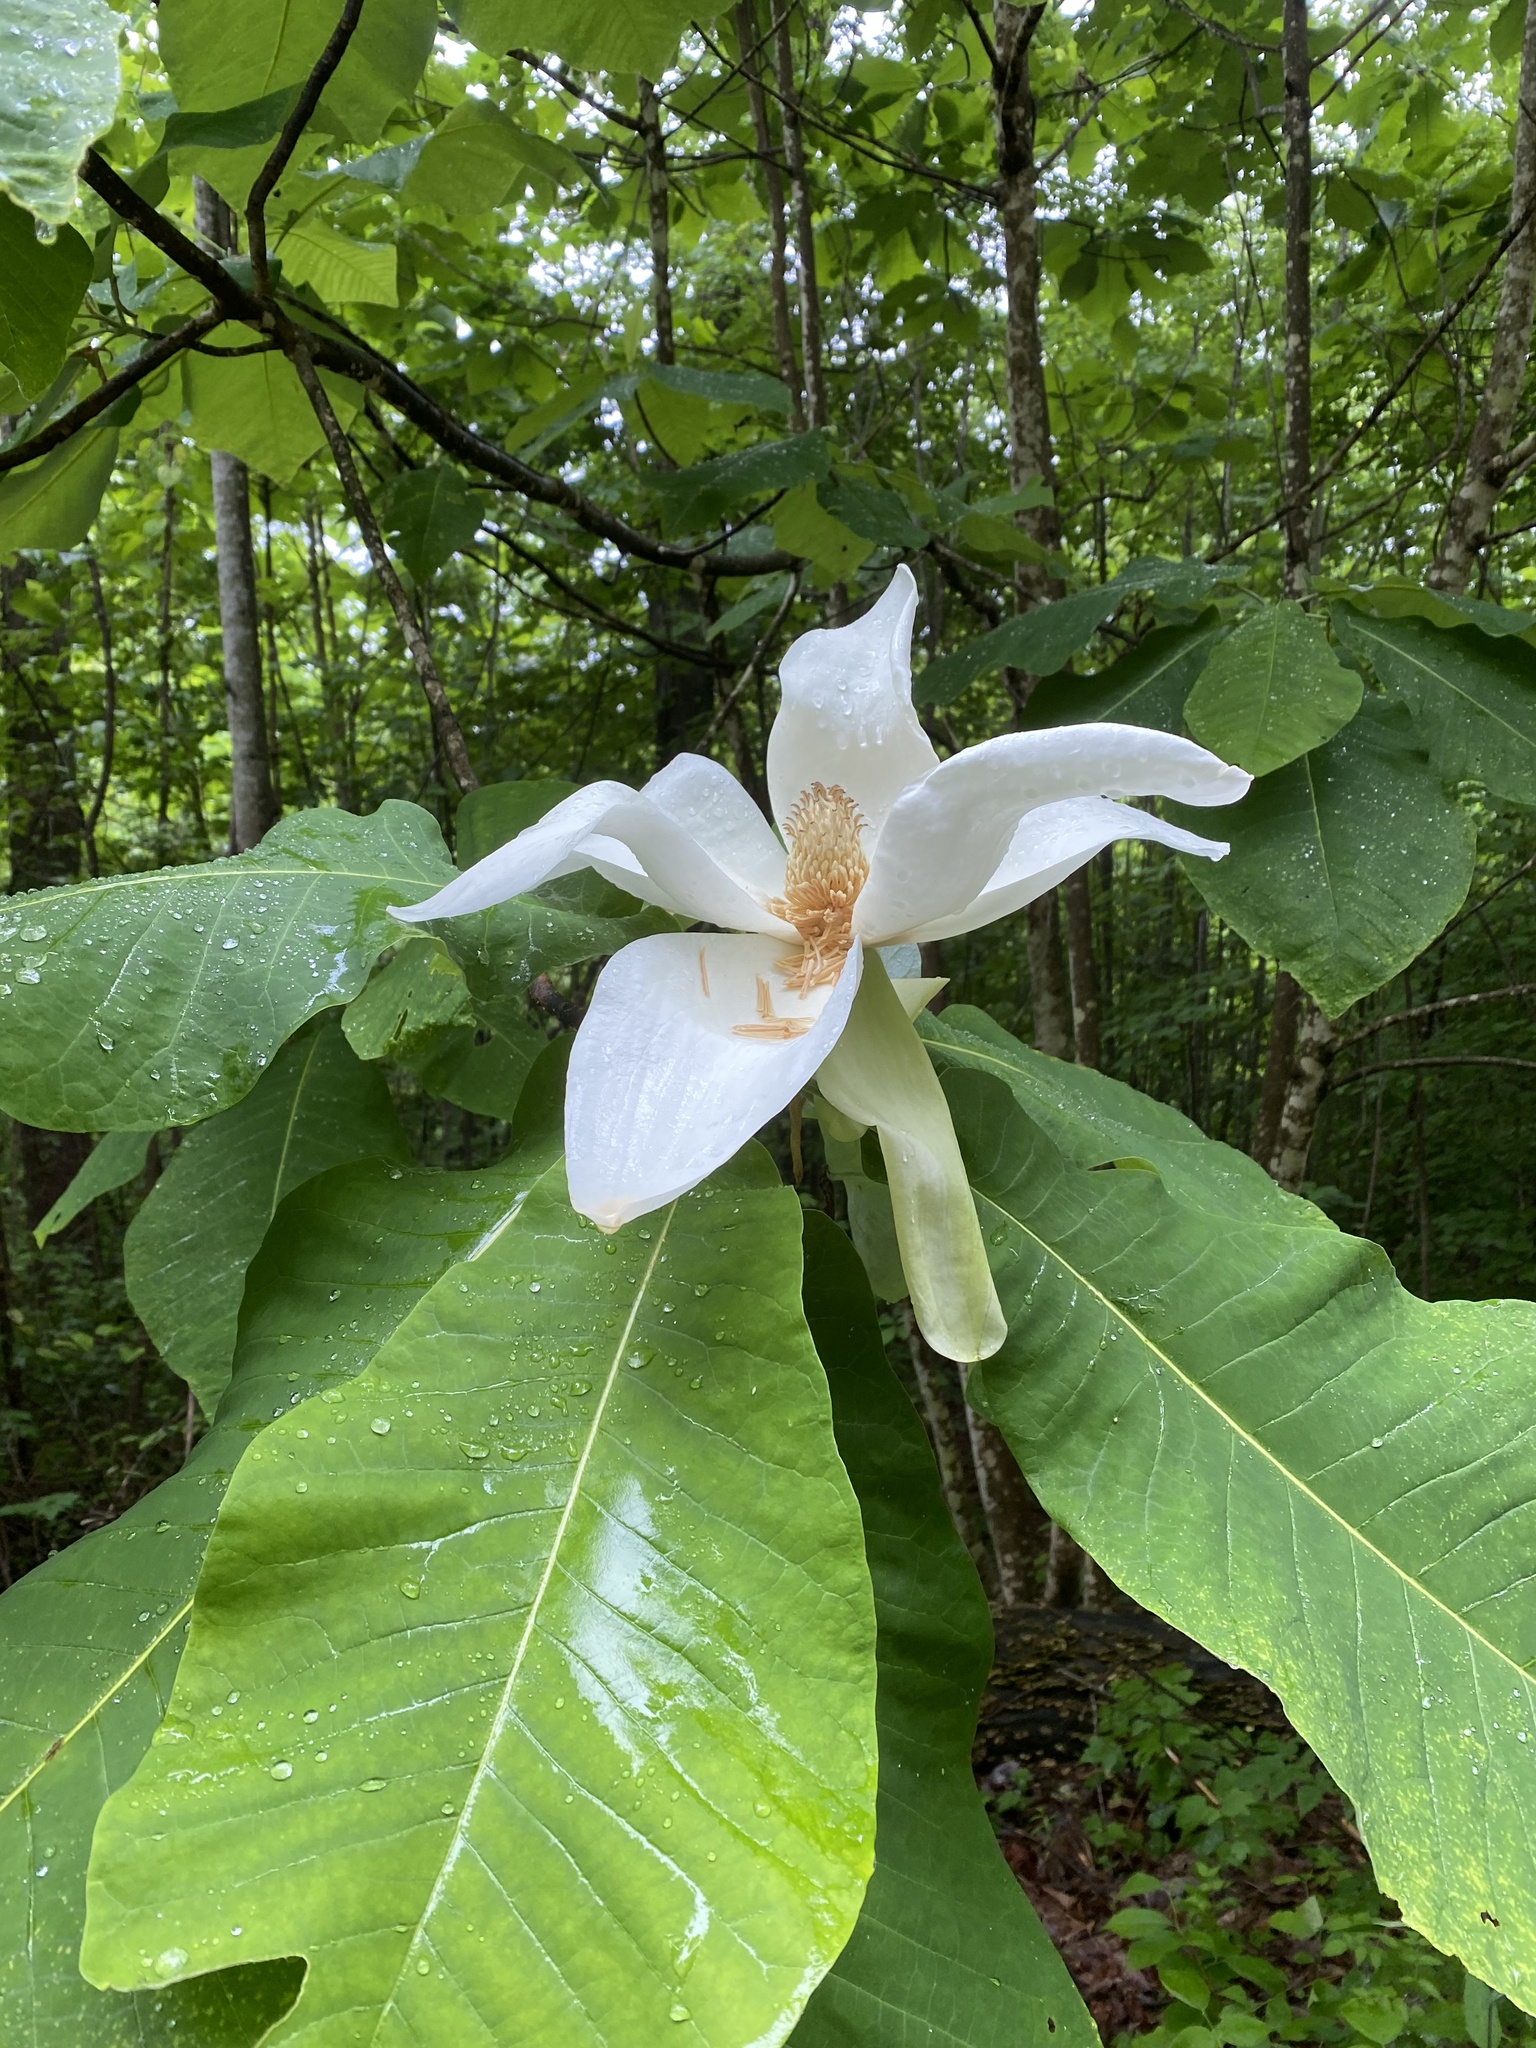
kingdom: Plantae
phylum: Tracheophyta
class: Magnoliopsida
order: Magnoliales
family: Magnoliaceae
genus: Magnolia
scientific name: Magnolia macrophylla
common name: Big-leaf magnolia
